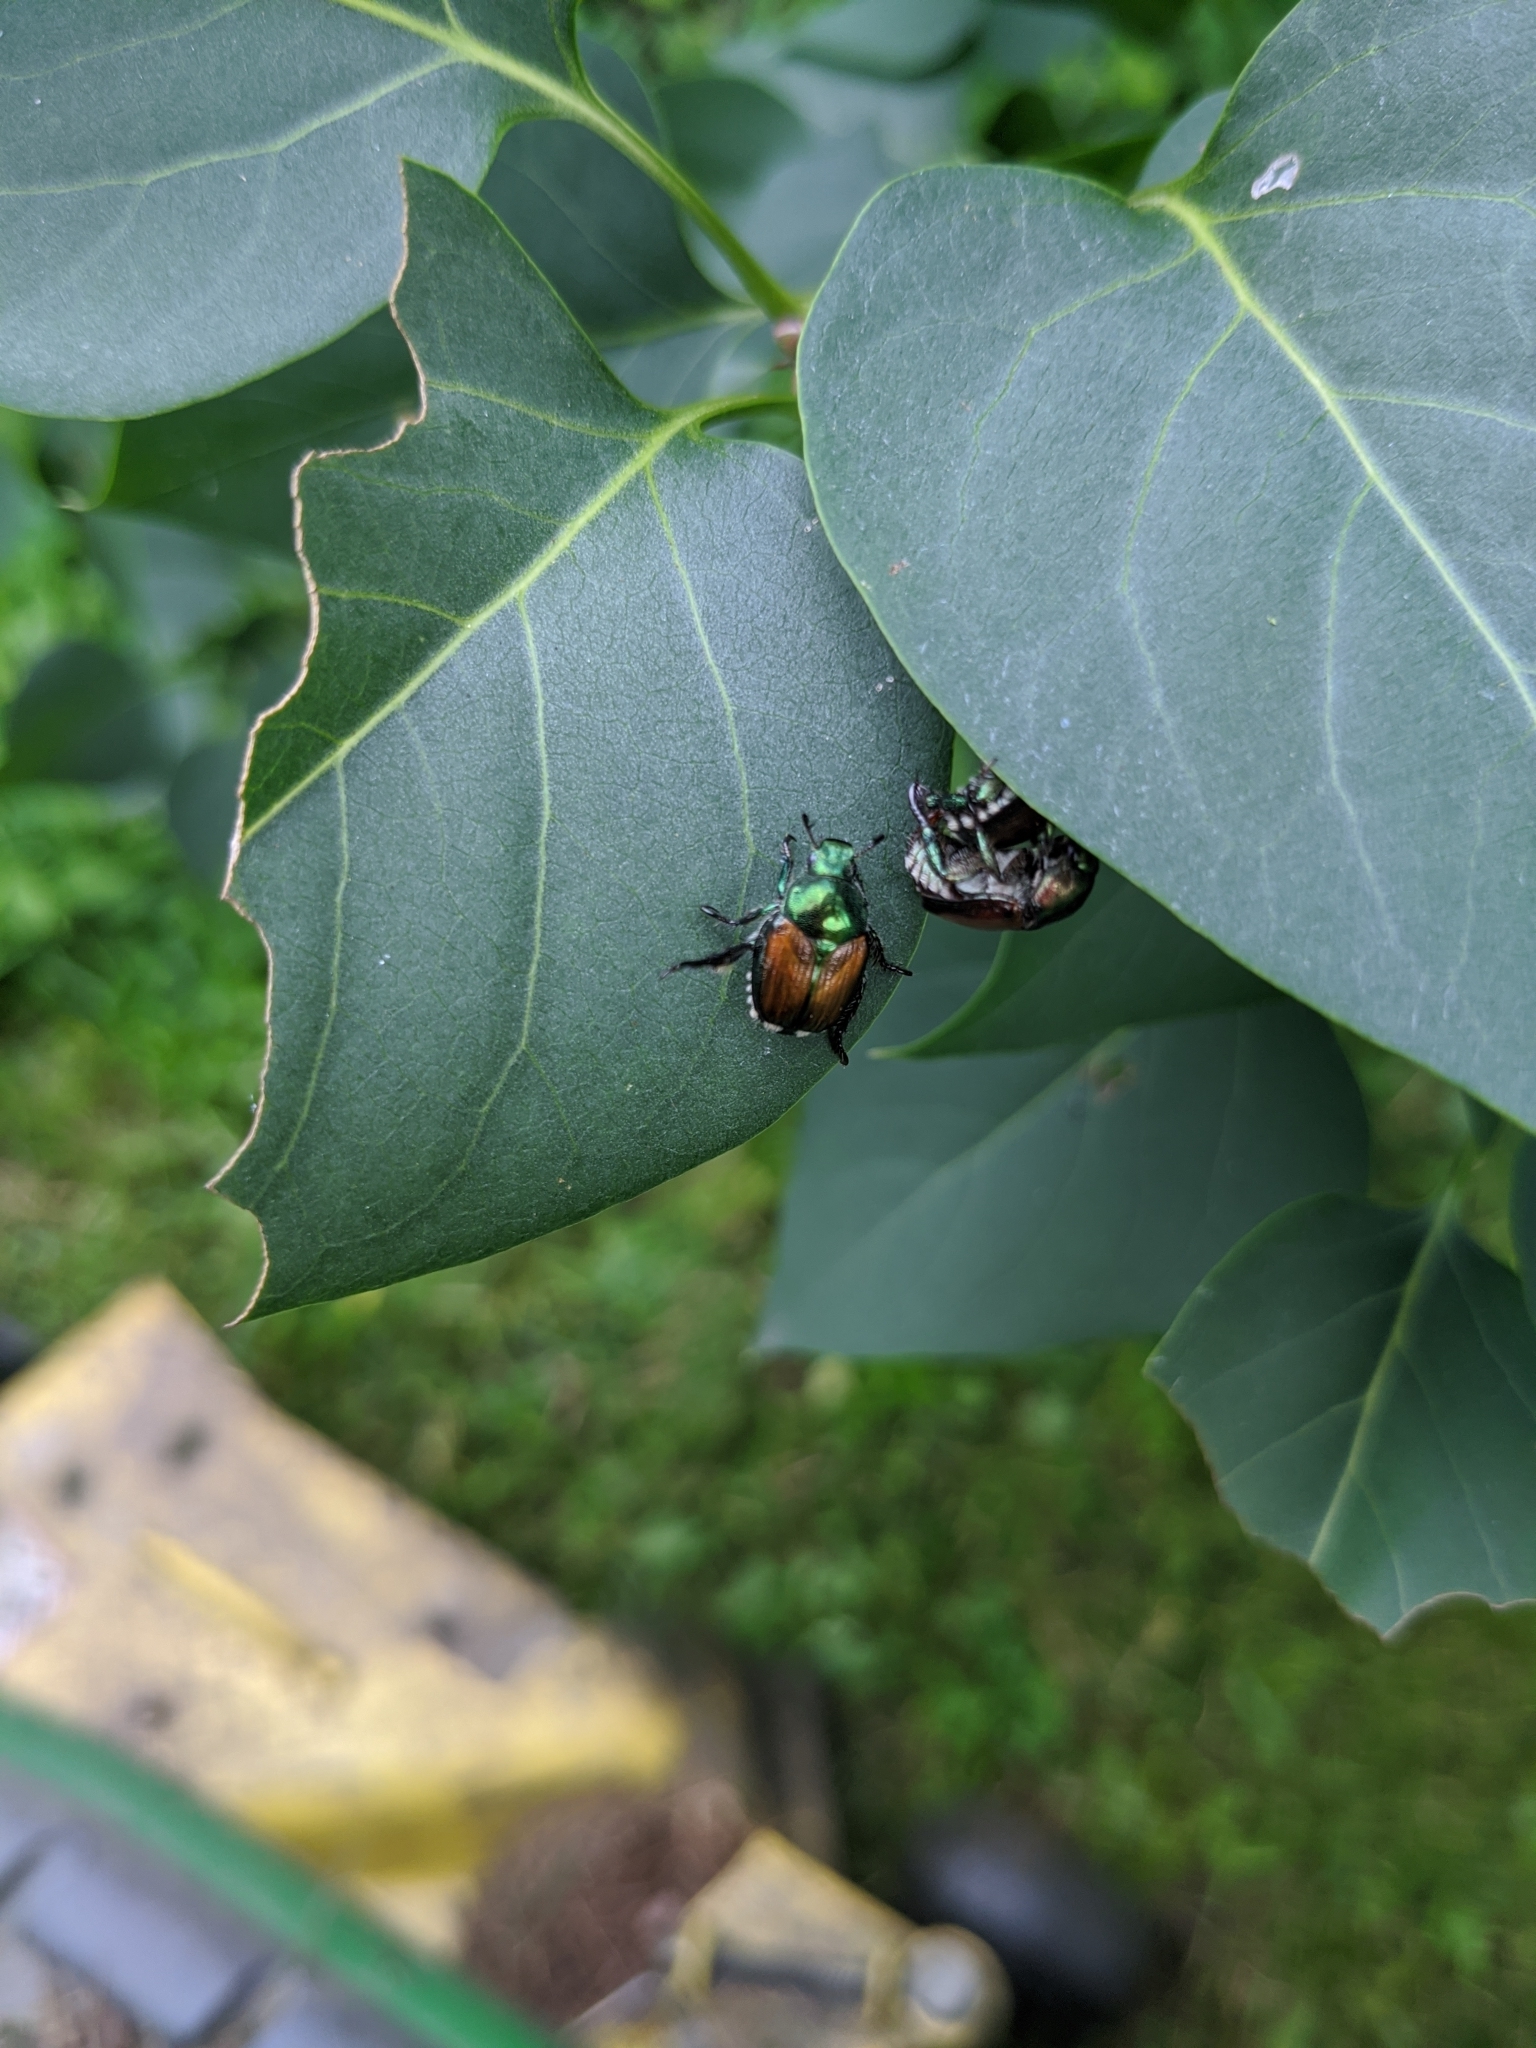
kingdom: Animalia
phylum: Arthropoda
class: Insecta
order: Coleoptera
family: Scarabaeidae
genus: Popillia
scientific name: Popillia japonica
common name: Japanese beetle
